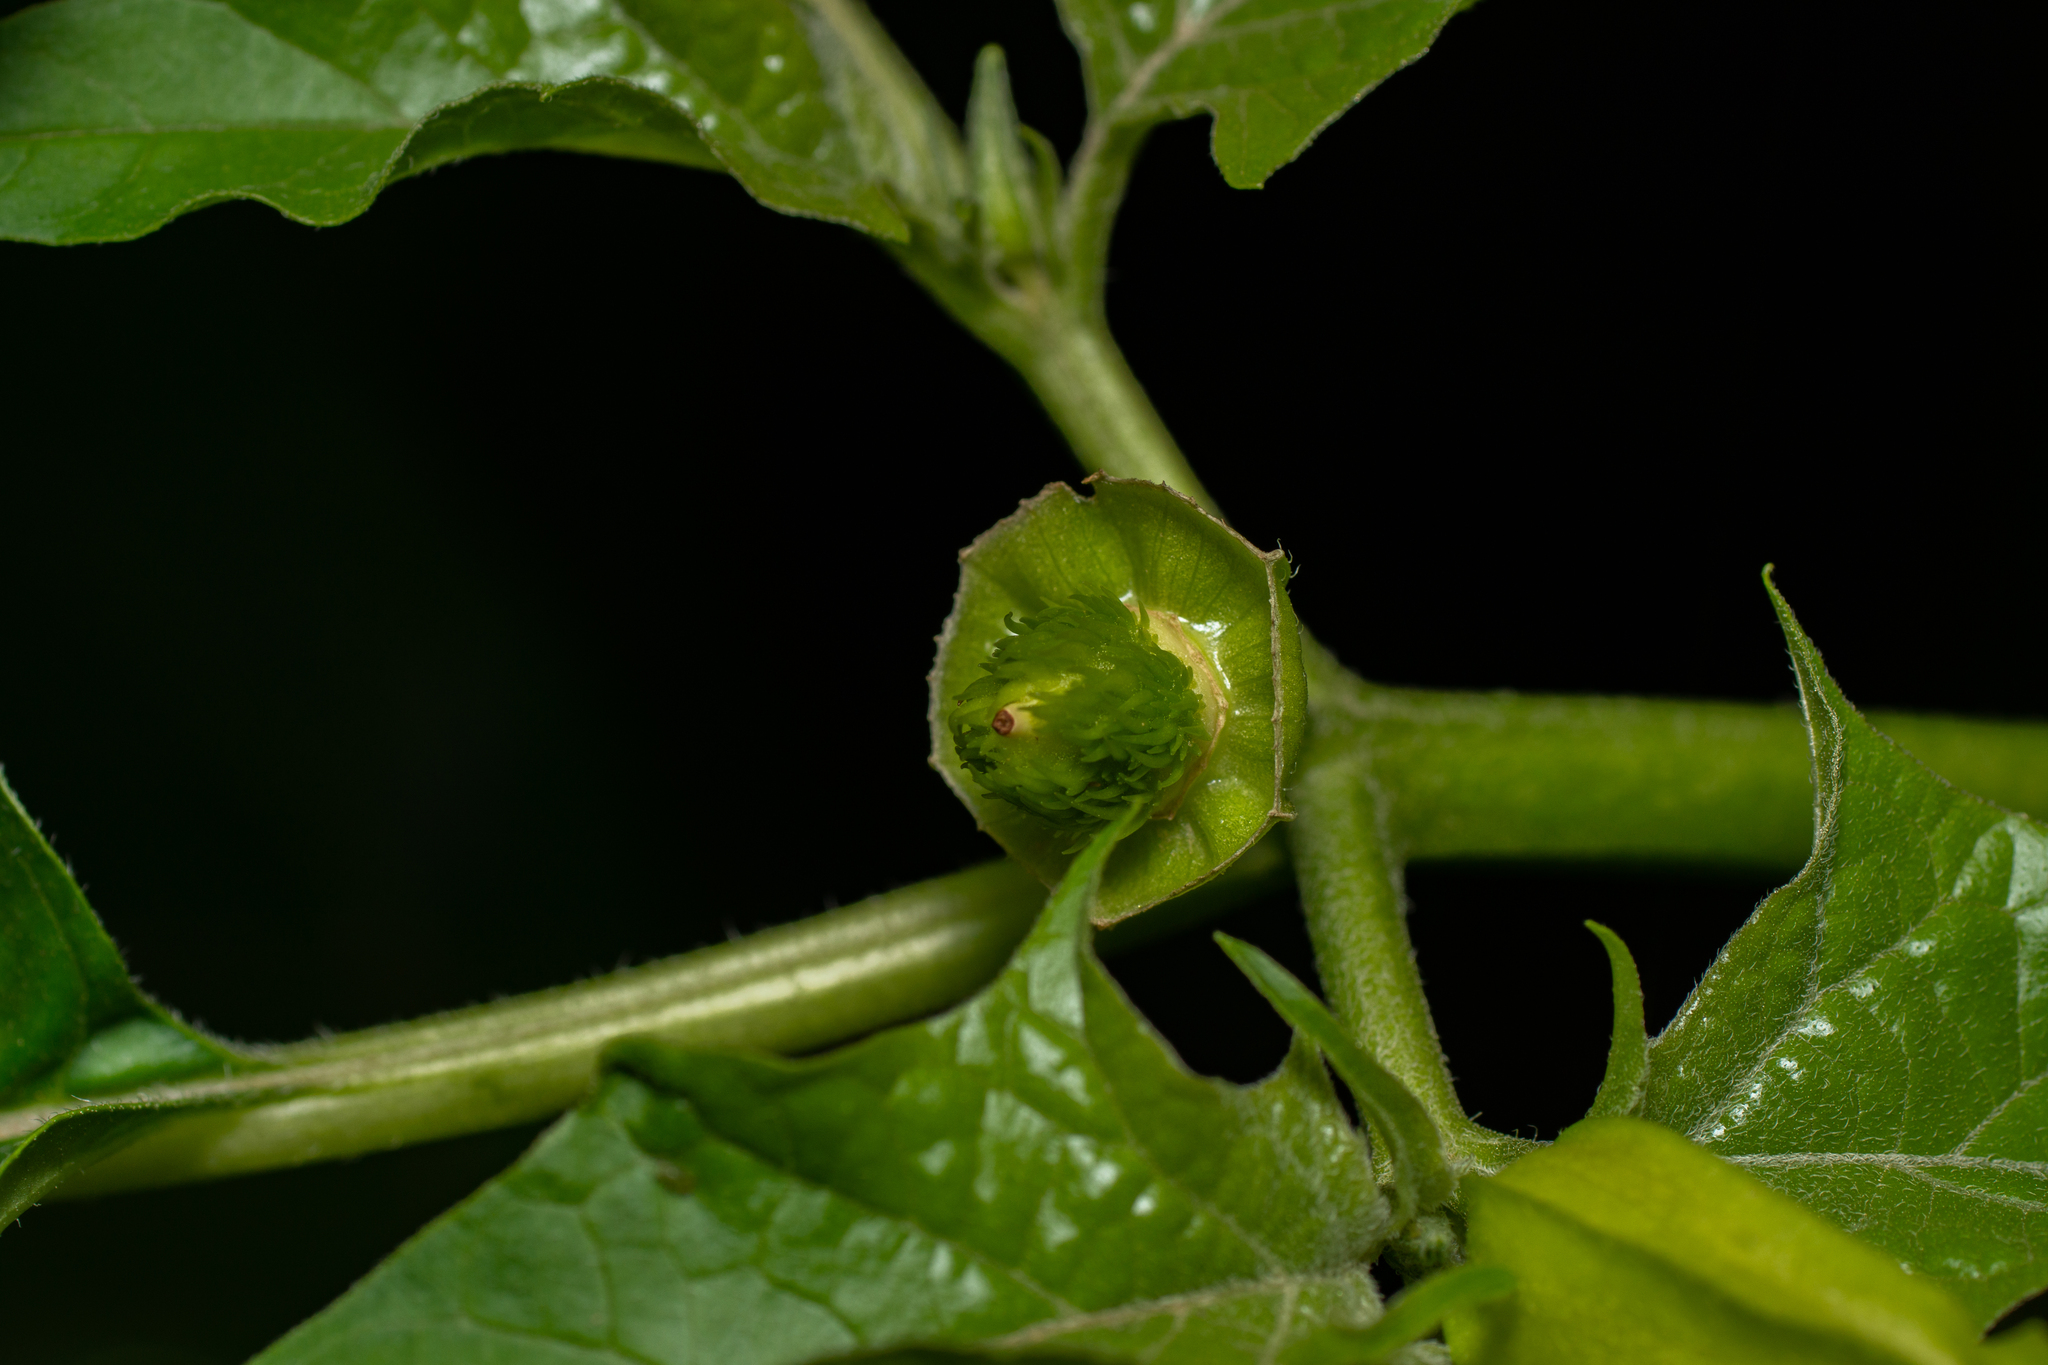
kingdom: Plantae
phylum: Tracheophyta
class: Magnoliopsida
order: Solanales
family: Solanaceae
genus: Datura
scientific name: Datura stramonium
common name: Thorn-apple
